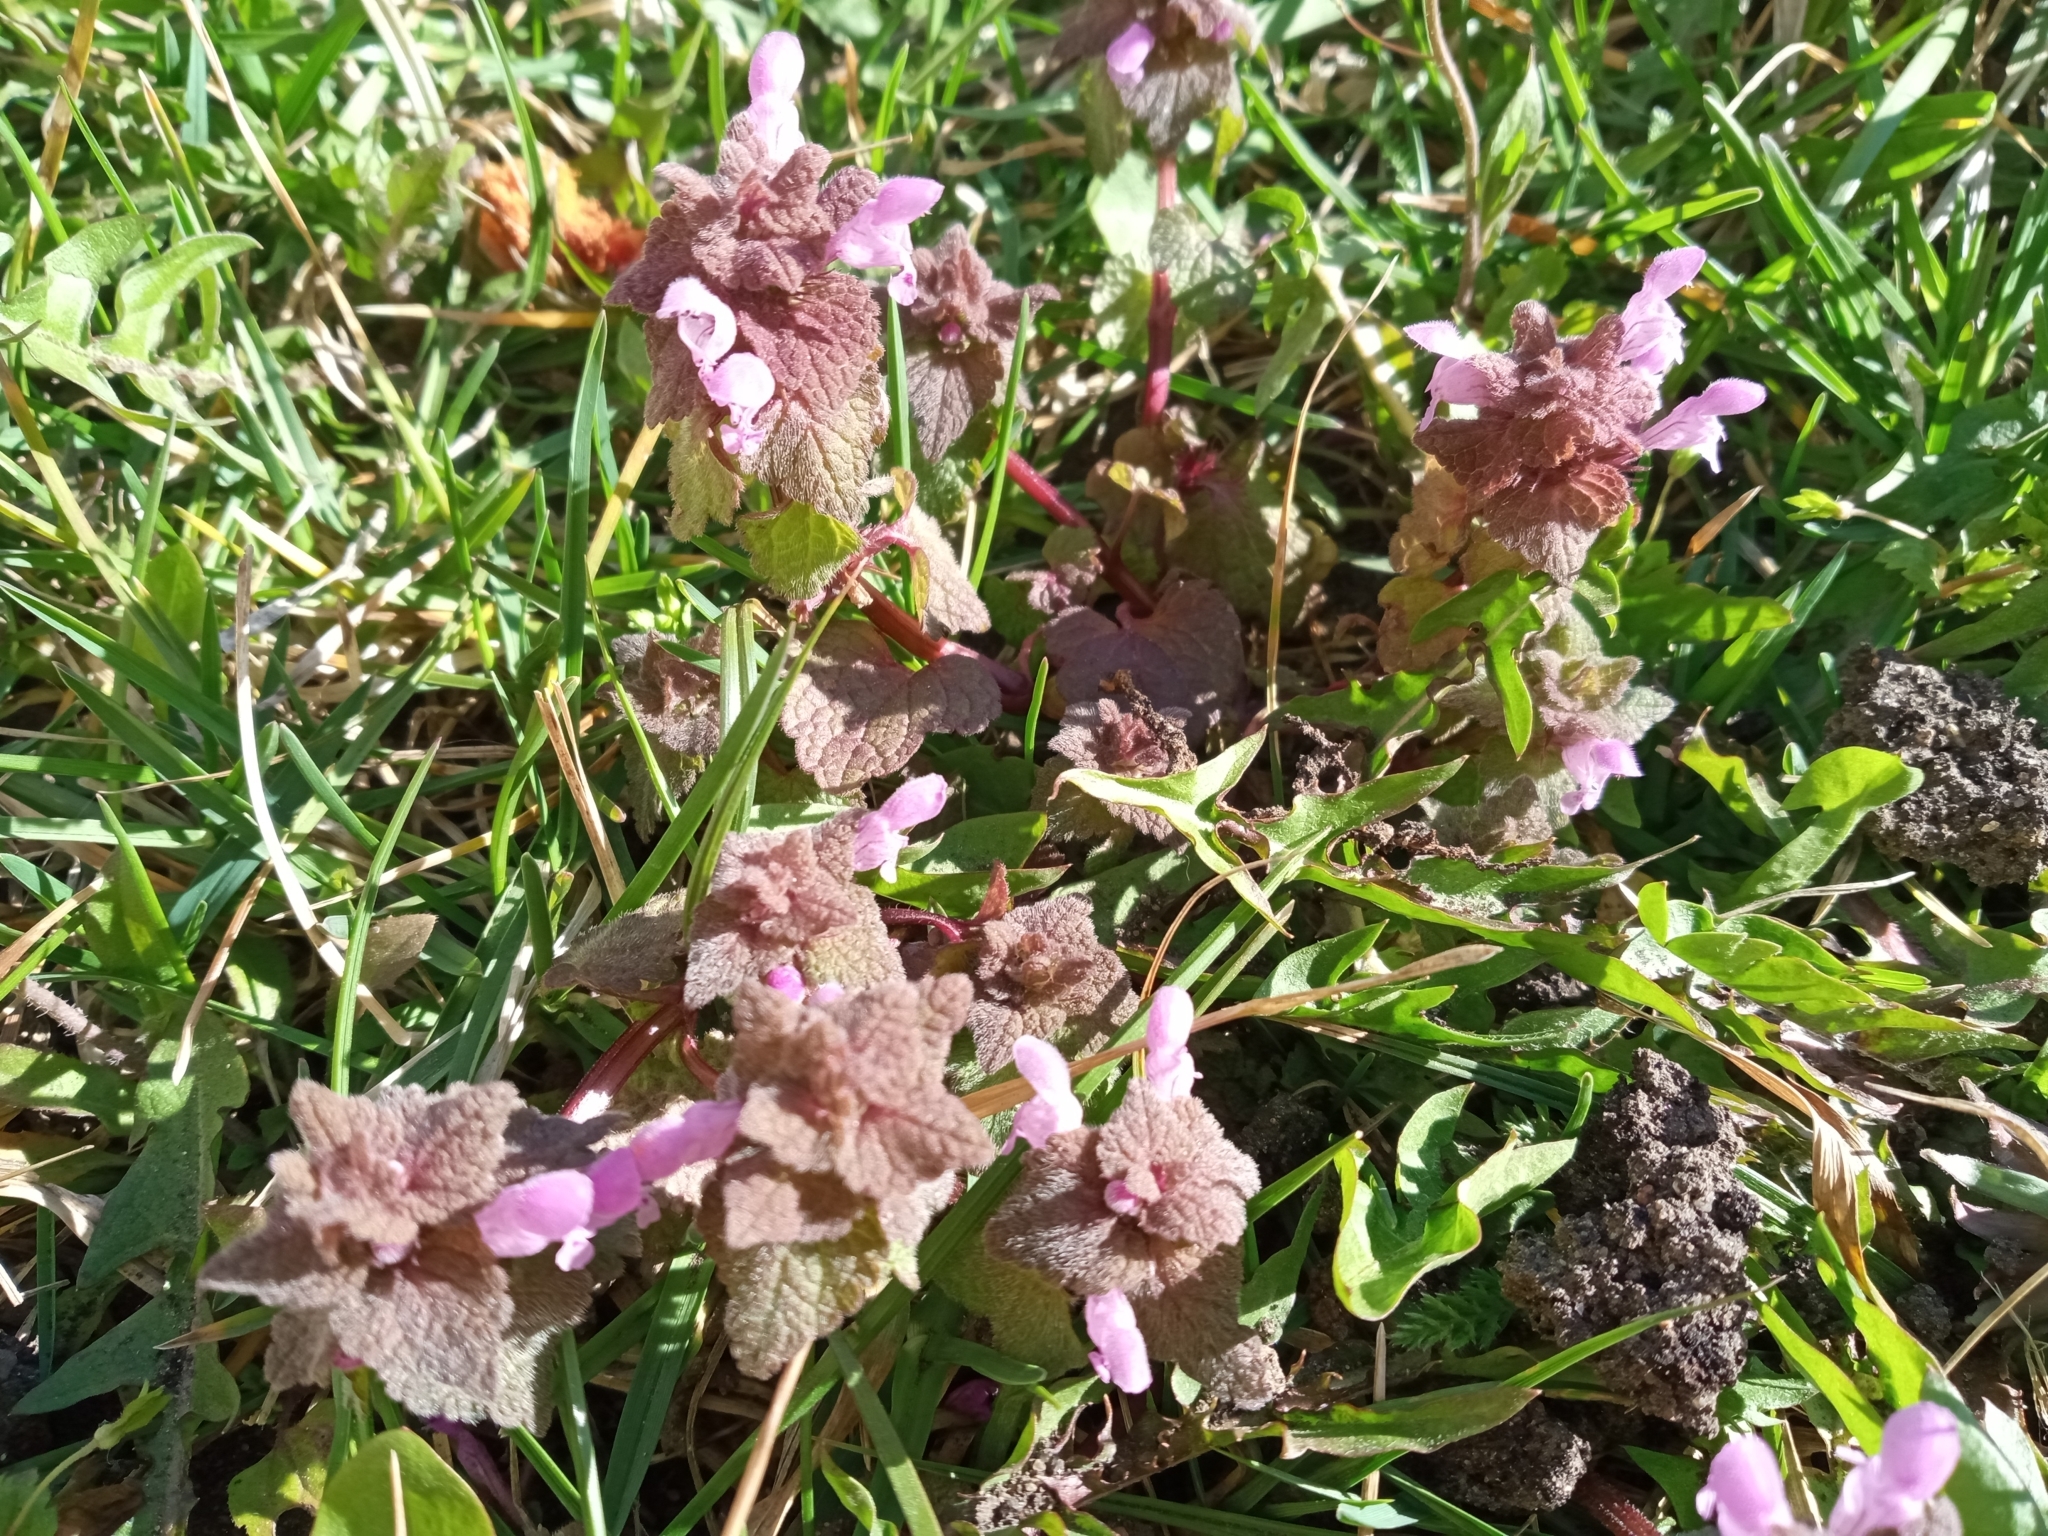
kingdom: Plantae
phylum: Tracheophyta
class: Magnoliopsida
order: Lamiales
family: Lamiaceae
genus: Lamium
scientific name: Lamium purpureum
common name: Red dead-nettle
